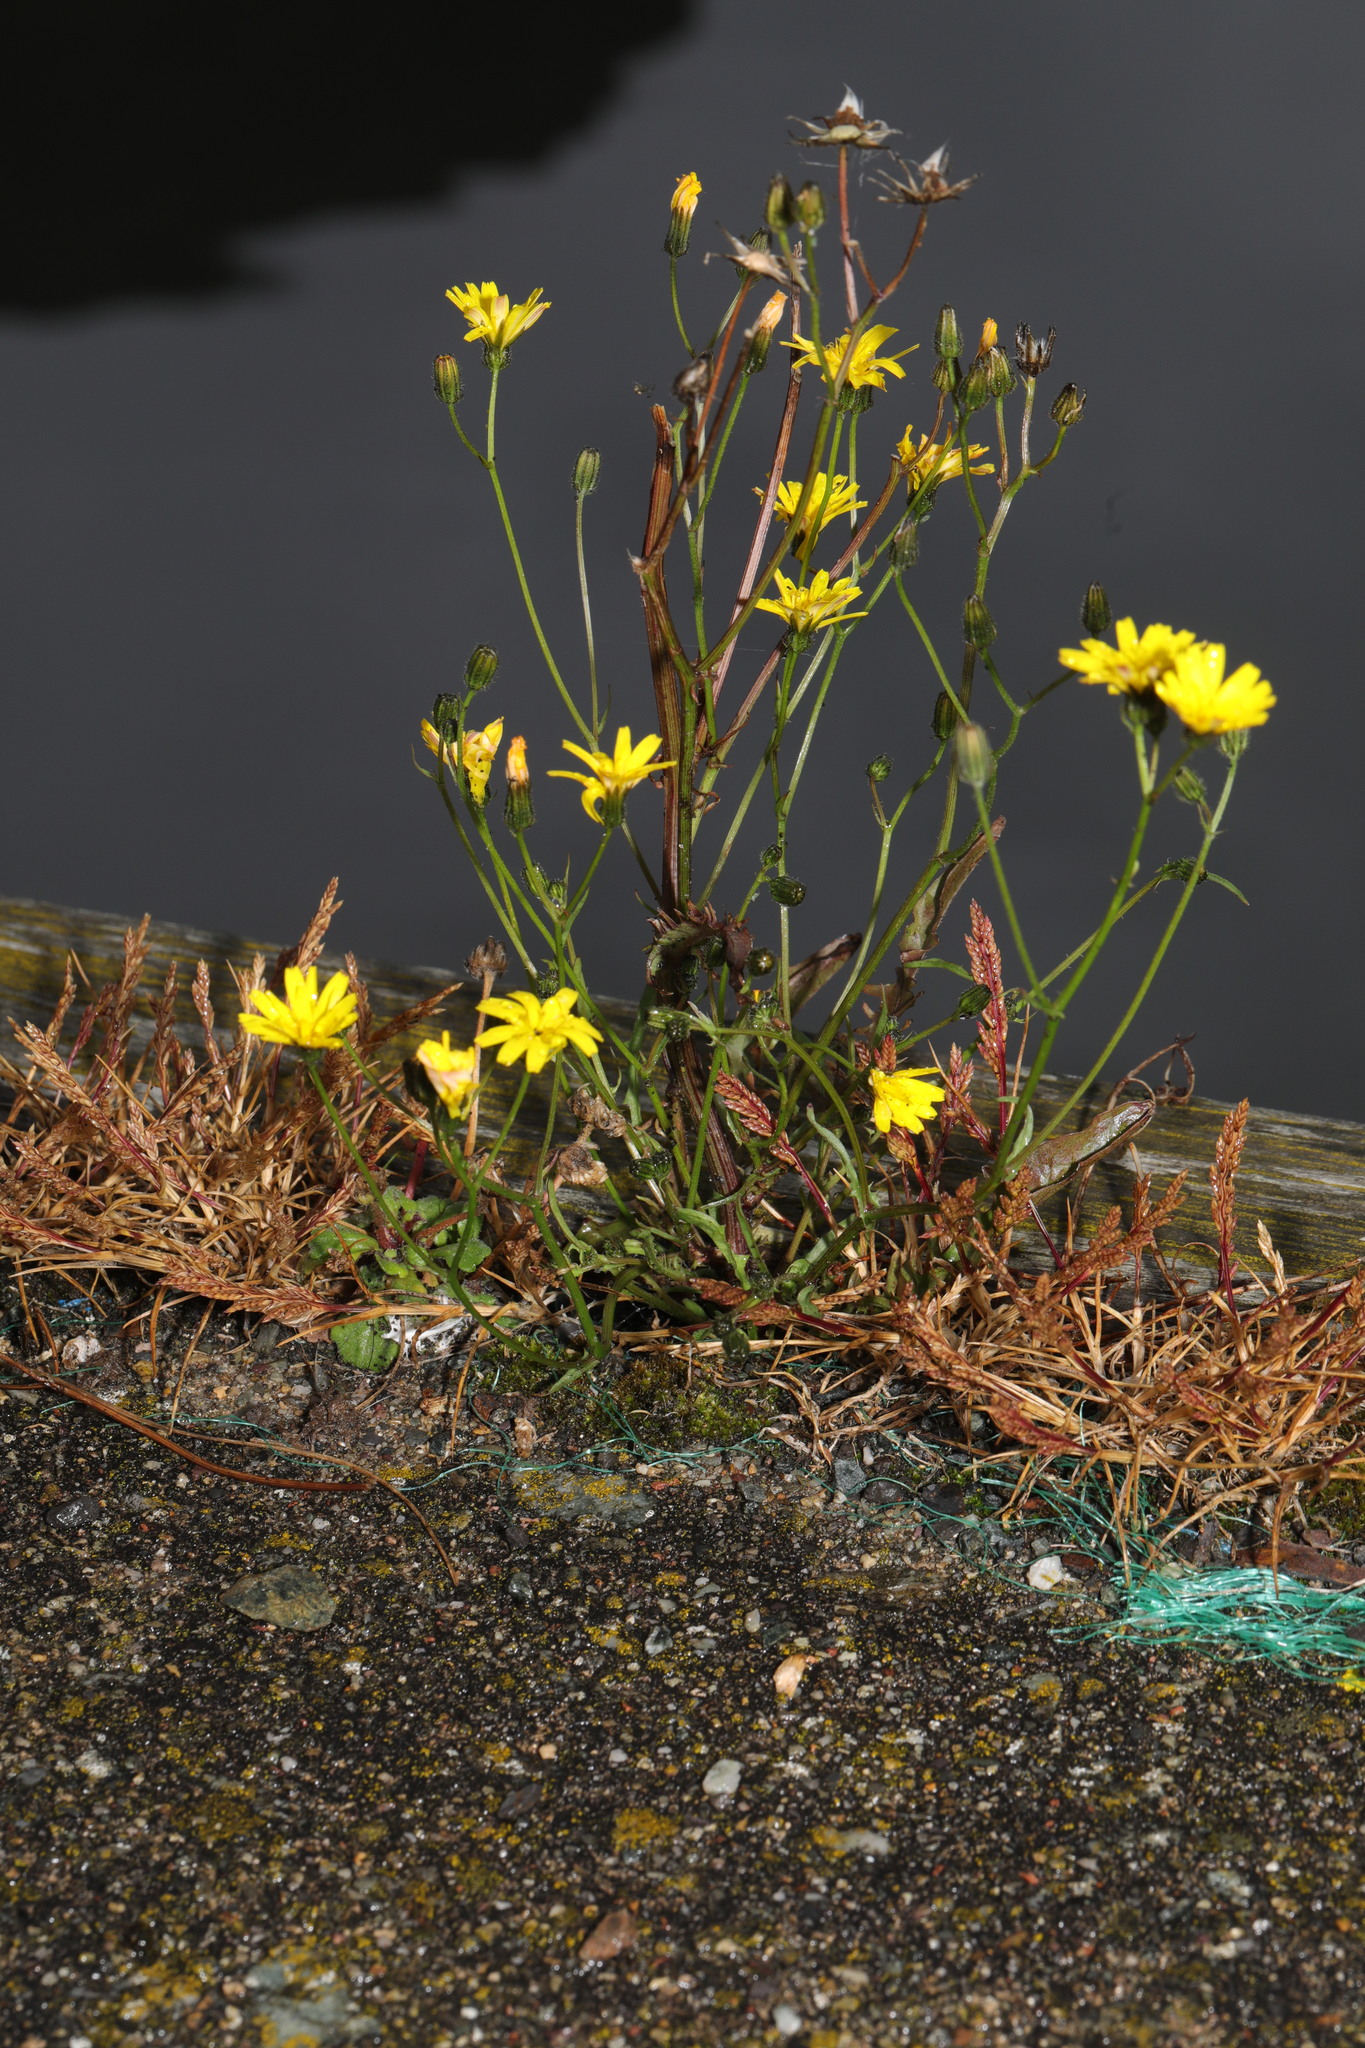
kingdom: Plantae
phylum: Tracheophyta
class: Magnoliopsida
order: Asterales
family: Asteraceae
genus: Crepis
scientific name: Crepis capillaris
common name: Smooth hawksbeard
